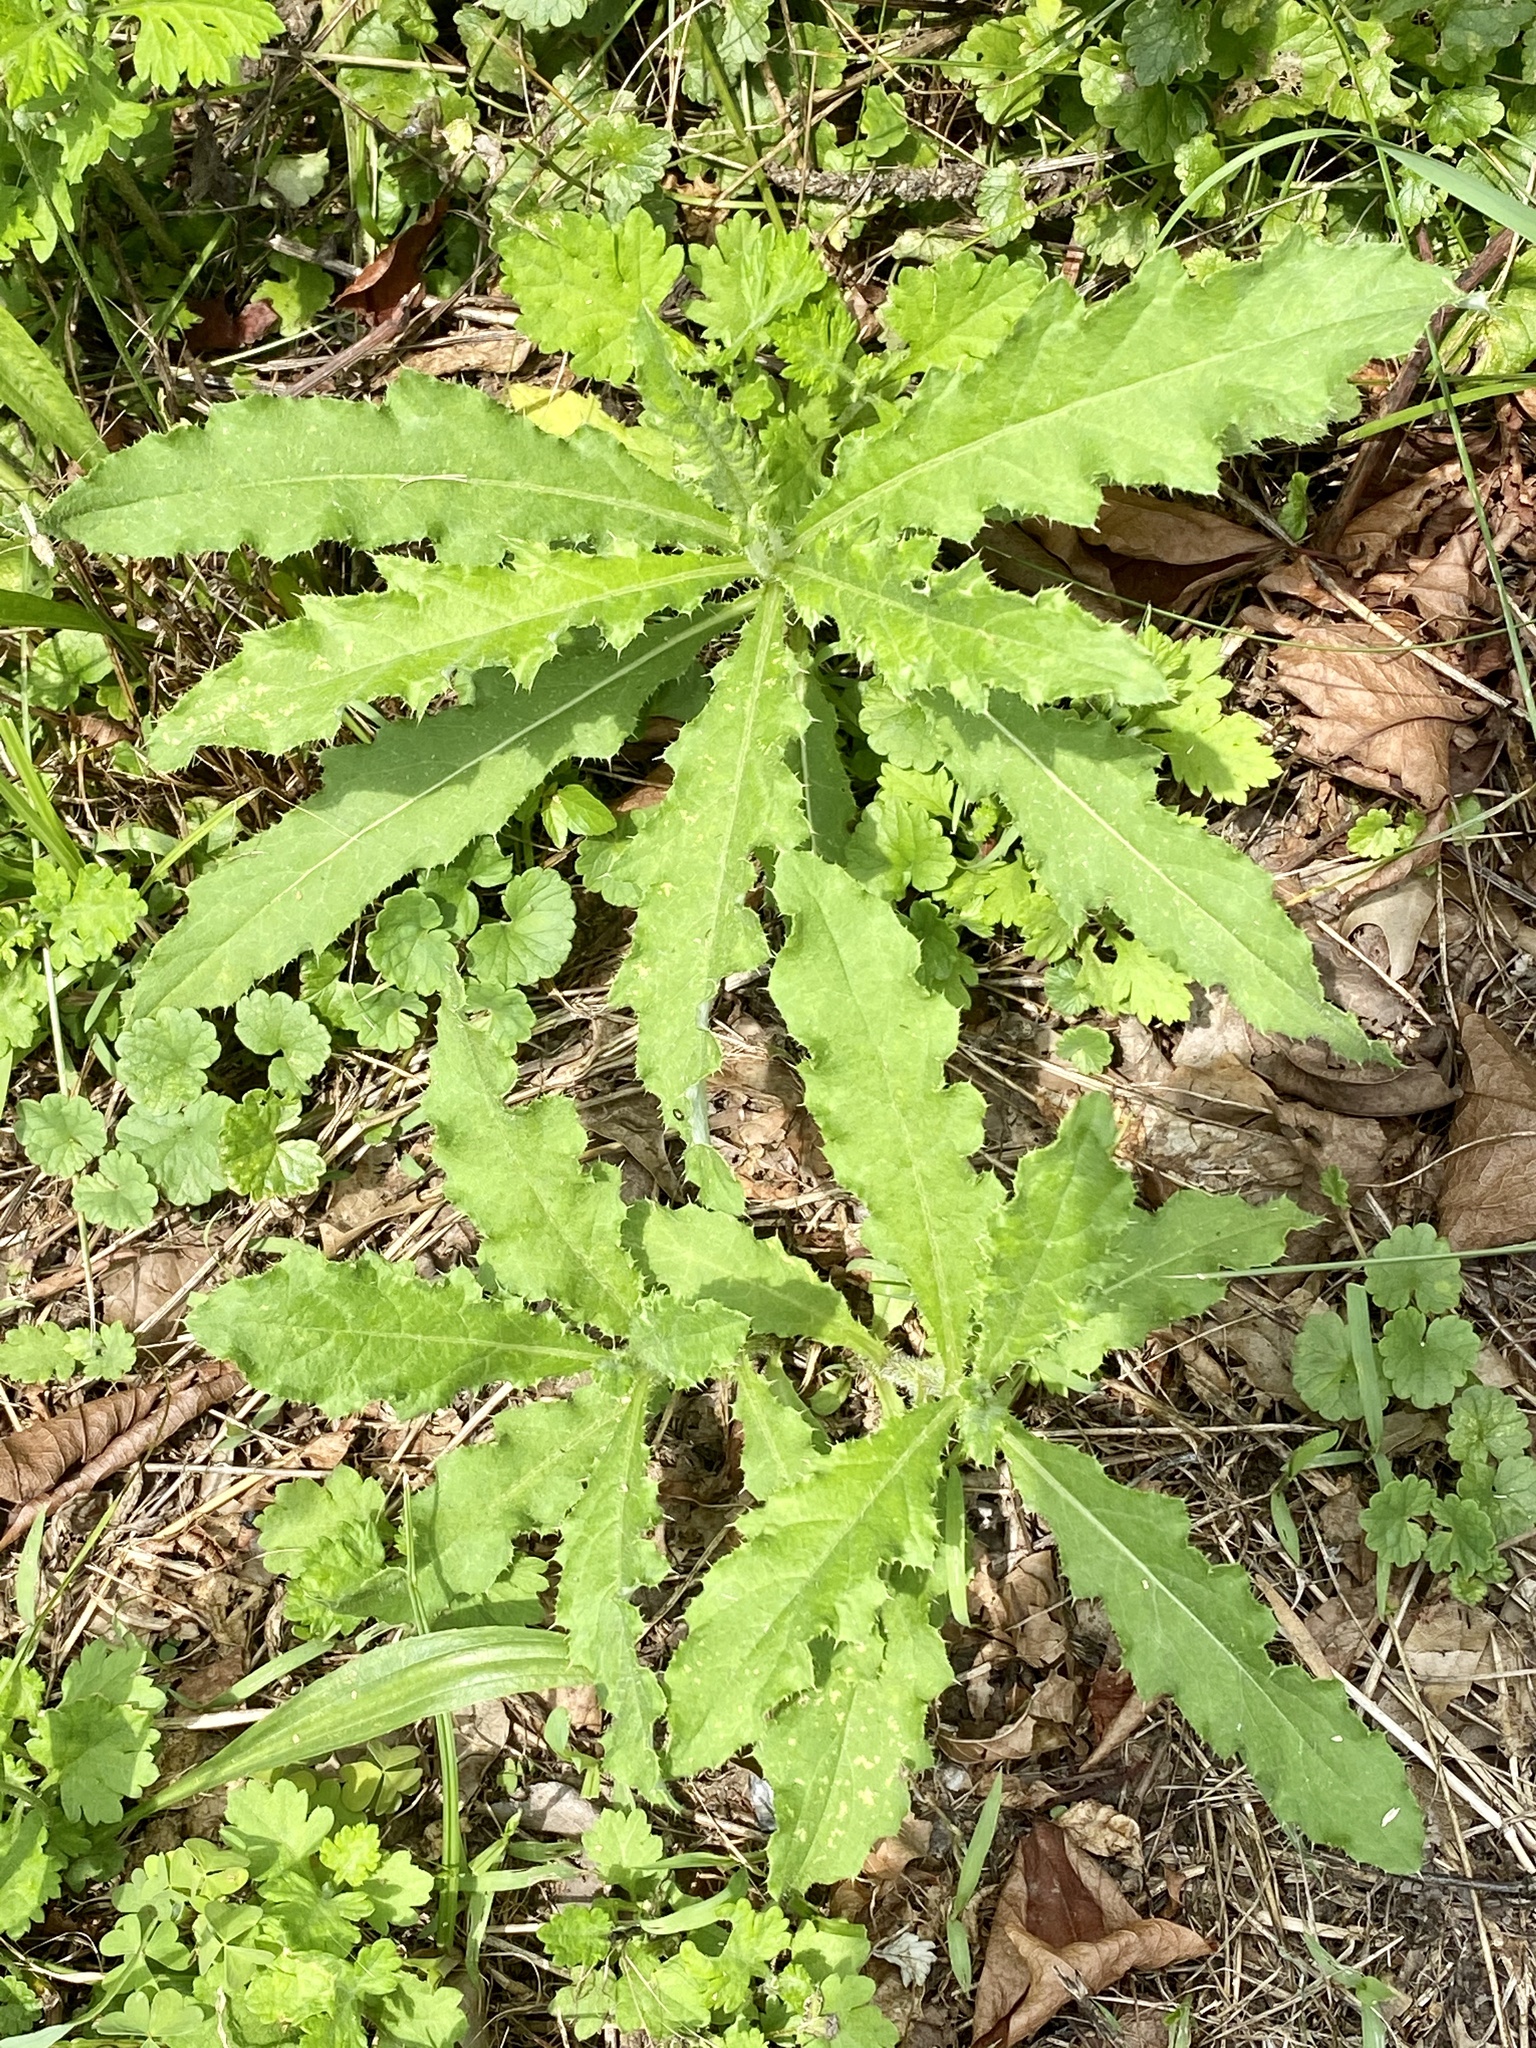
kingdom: Plantae
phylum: Tracheophyta
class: Magnoliopsida
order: Asterales
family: Asteraceae
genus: Cirsium
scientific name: Cirsium arvense
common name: Creeping thistle
